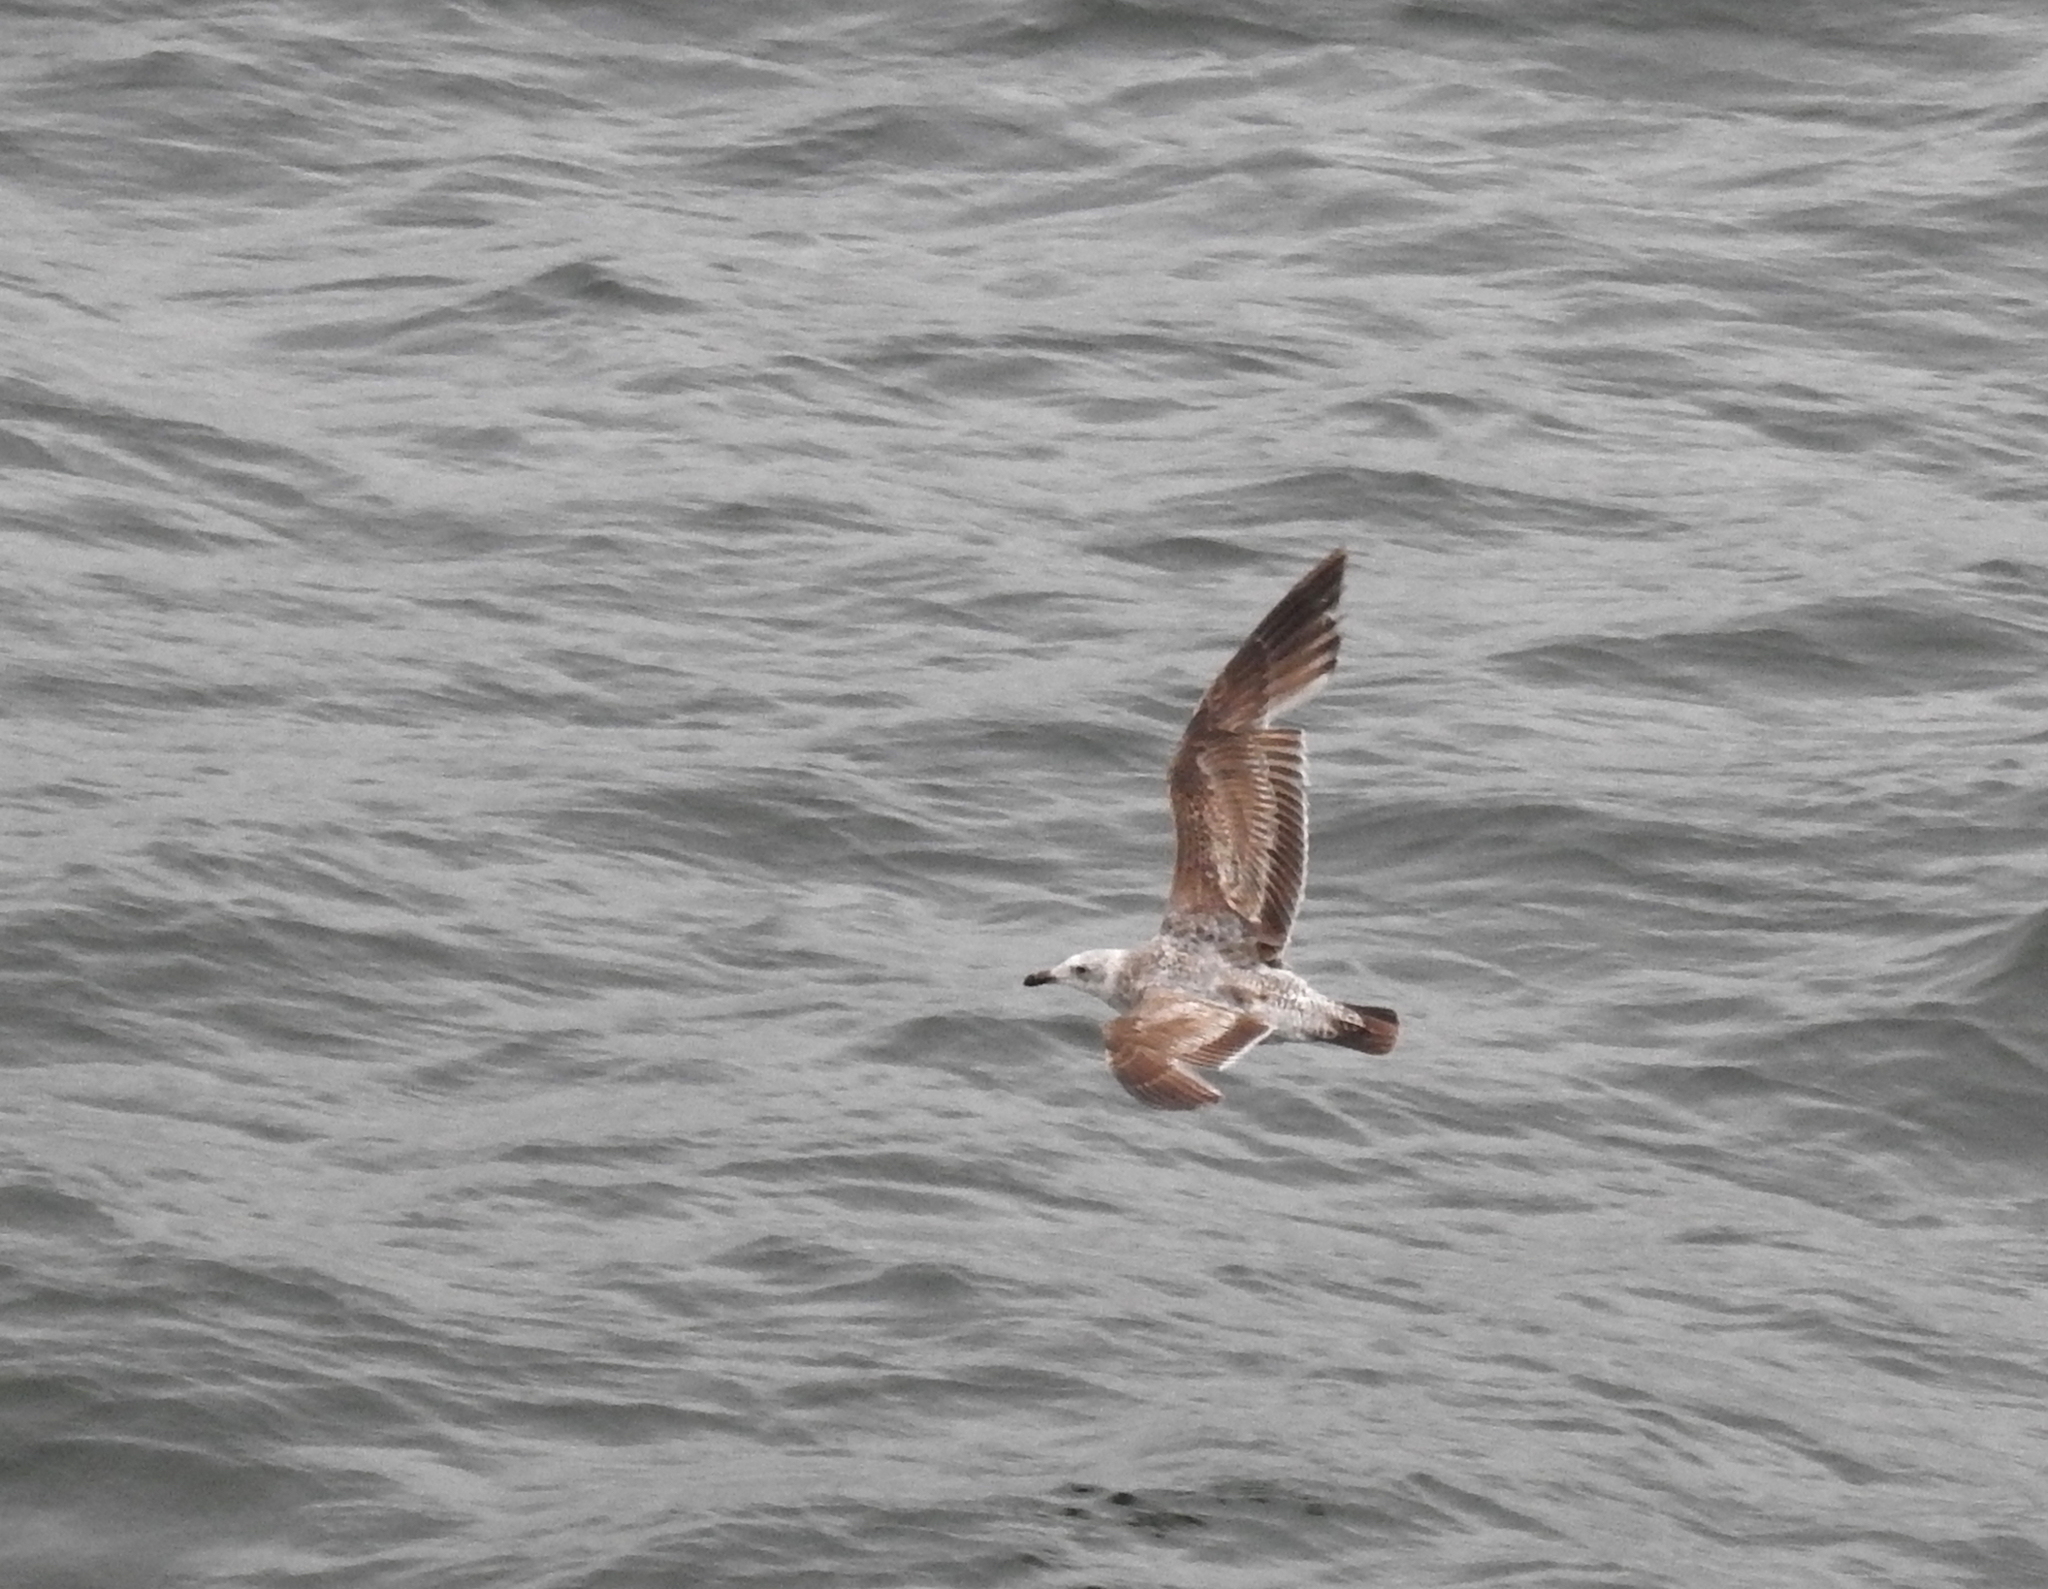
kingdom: Animalia
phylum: Chordata
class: Aves
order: Charadriiformes
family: Laridae
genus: Larus
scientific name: Larus occidentalis
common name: Western gull
